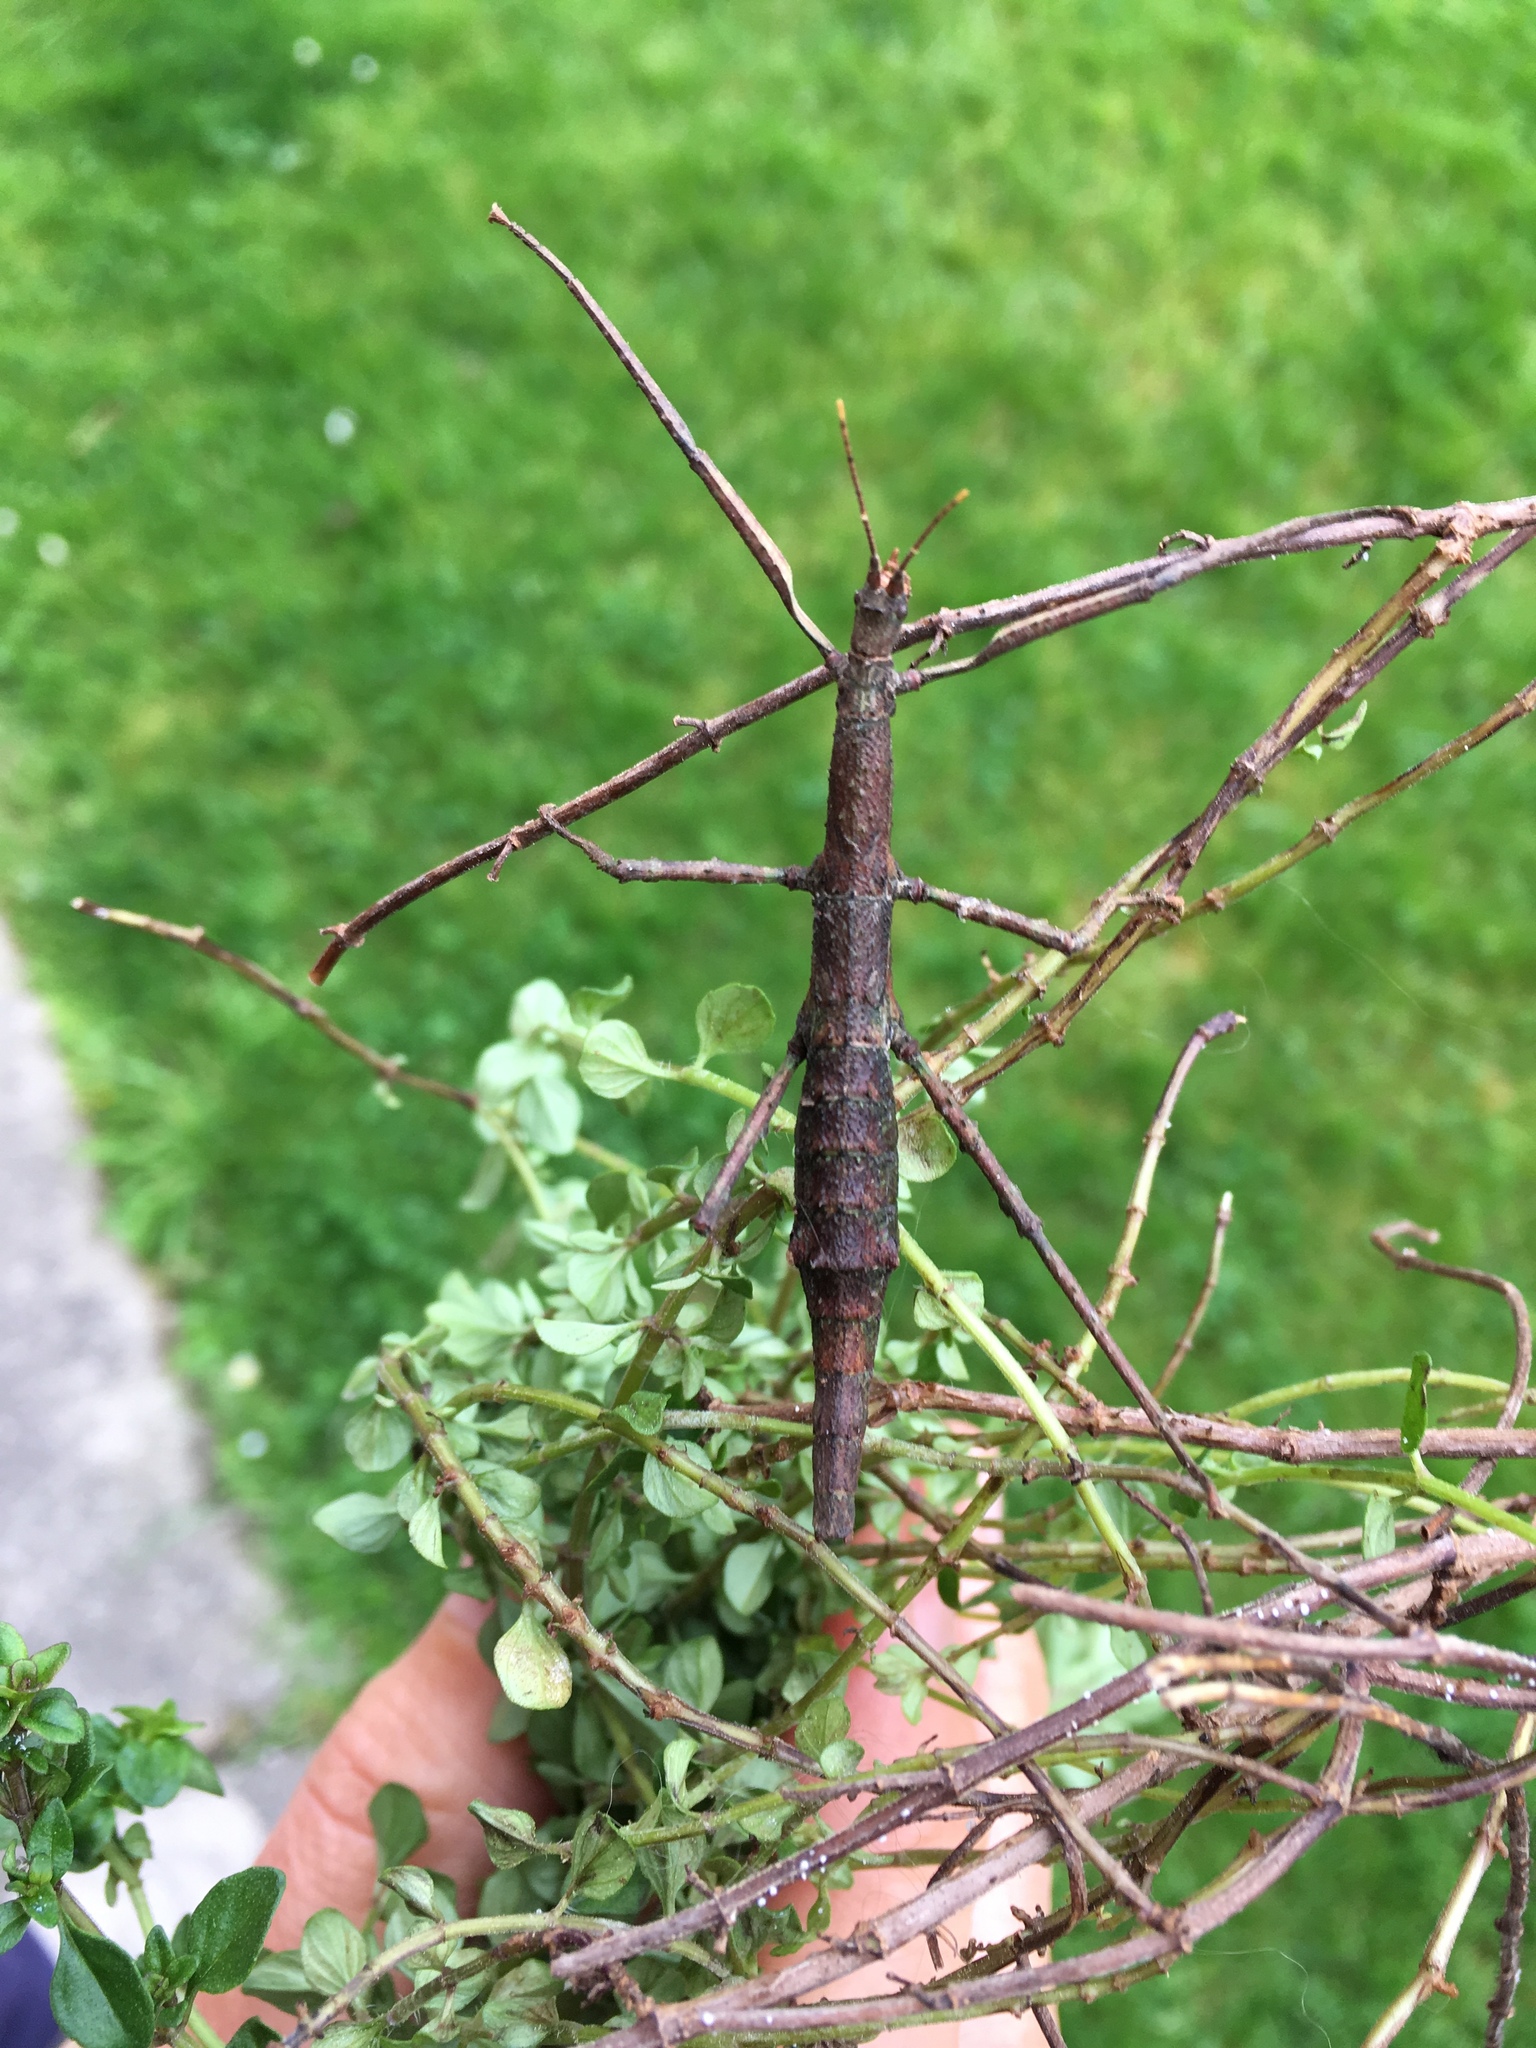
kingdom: Animalia
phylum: Arthropoda
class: Insecta
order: Phasmida
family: Phasmatidae
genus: Niveaphasma
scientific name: Niveaphasma annulatum
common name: Hutton's stick insect
